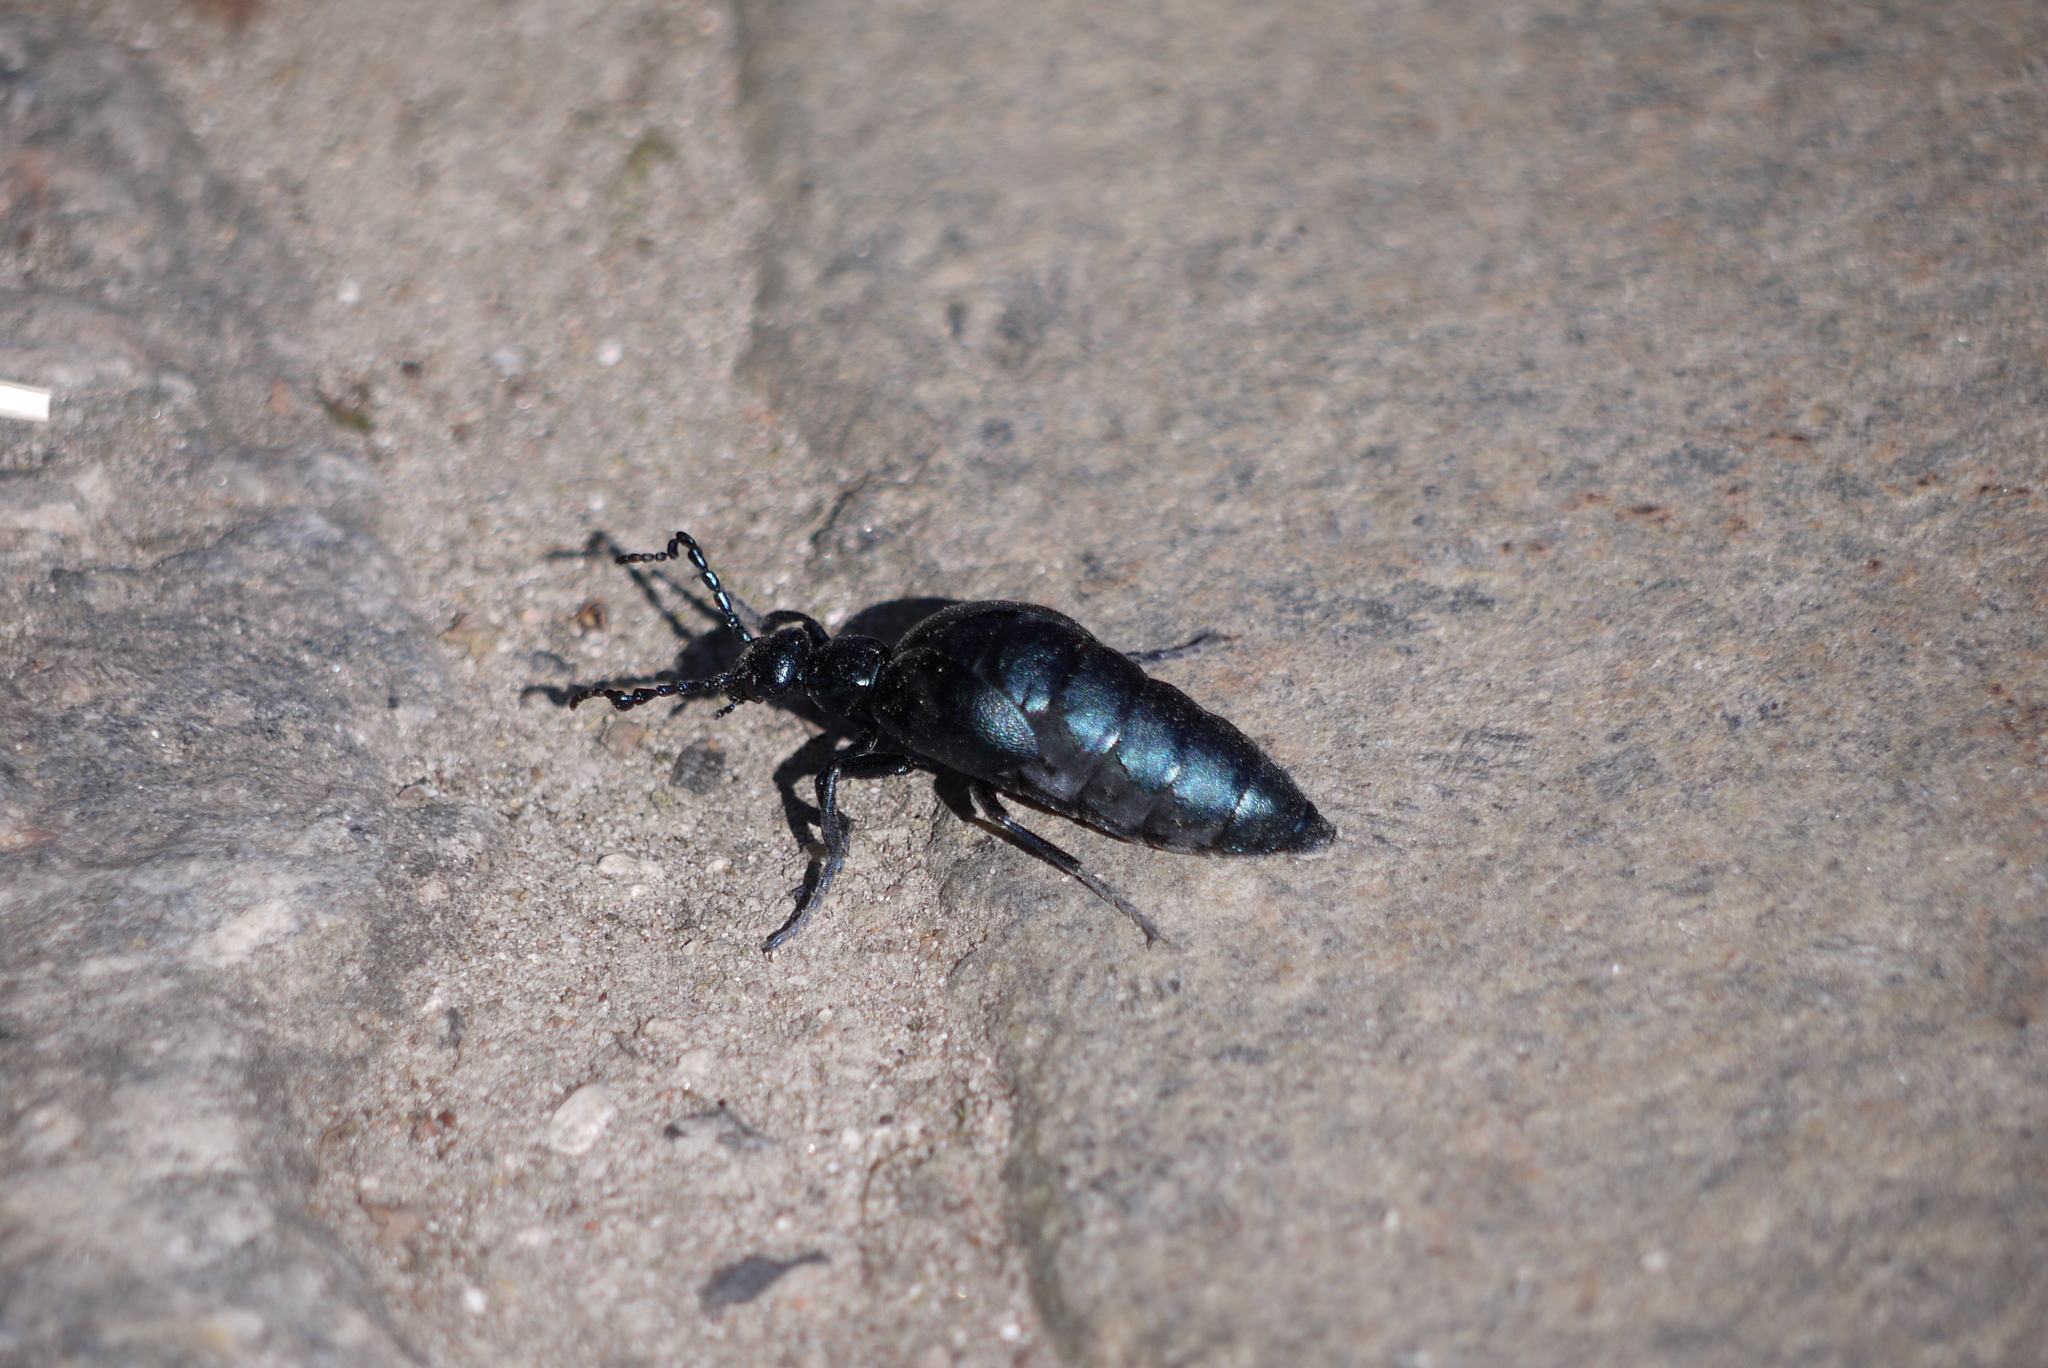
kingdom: Animalia
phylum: Arthropoda
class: Insecta
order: Coleoptera
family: Meloidae
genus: Meloe
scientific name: Meloe violaceus
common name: Violet oil-beetle
